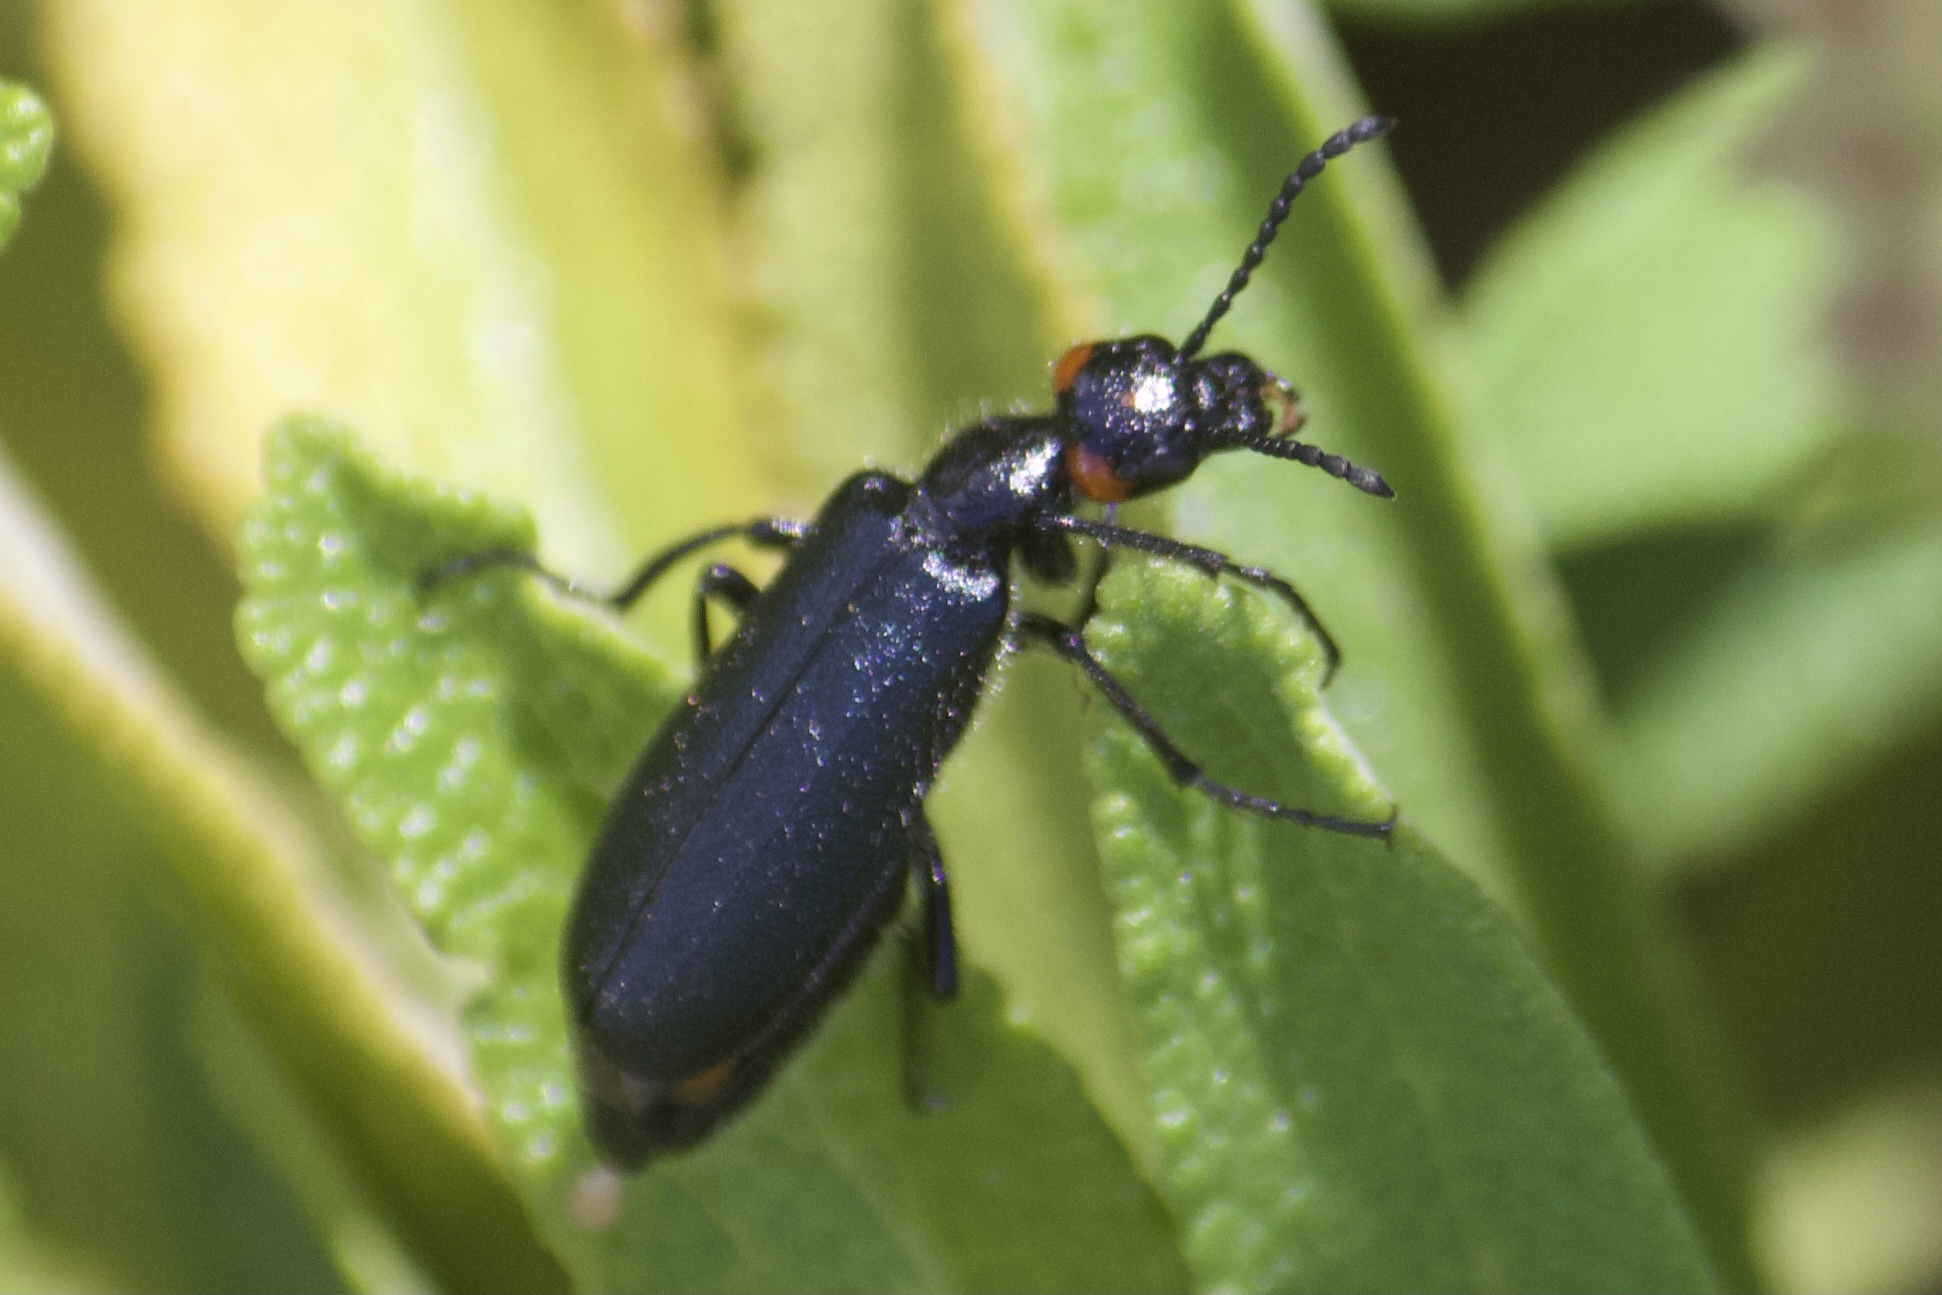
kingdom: Animalia
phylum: Arthropoda
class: Insecta
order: Coleoptera
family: Meloidae
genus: Lytta
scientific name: Lytta auriculata
